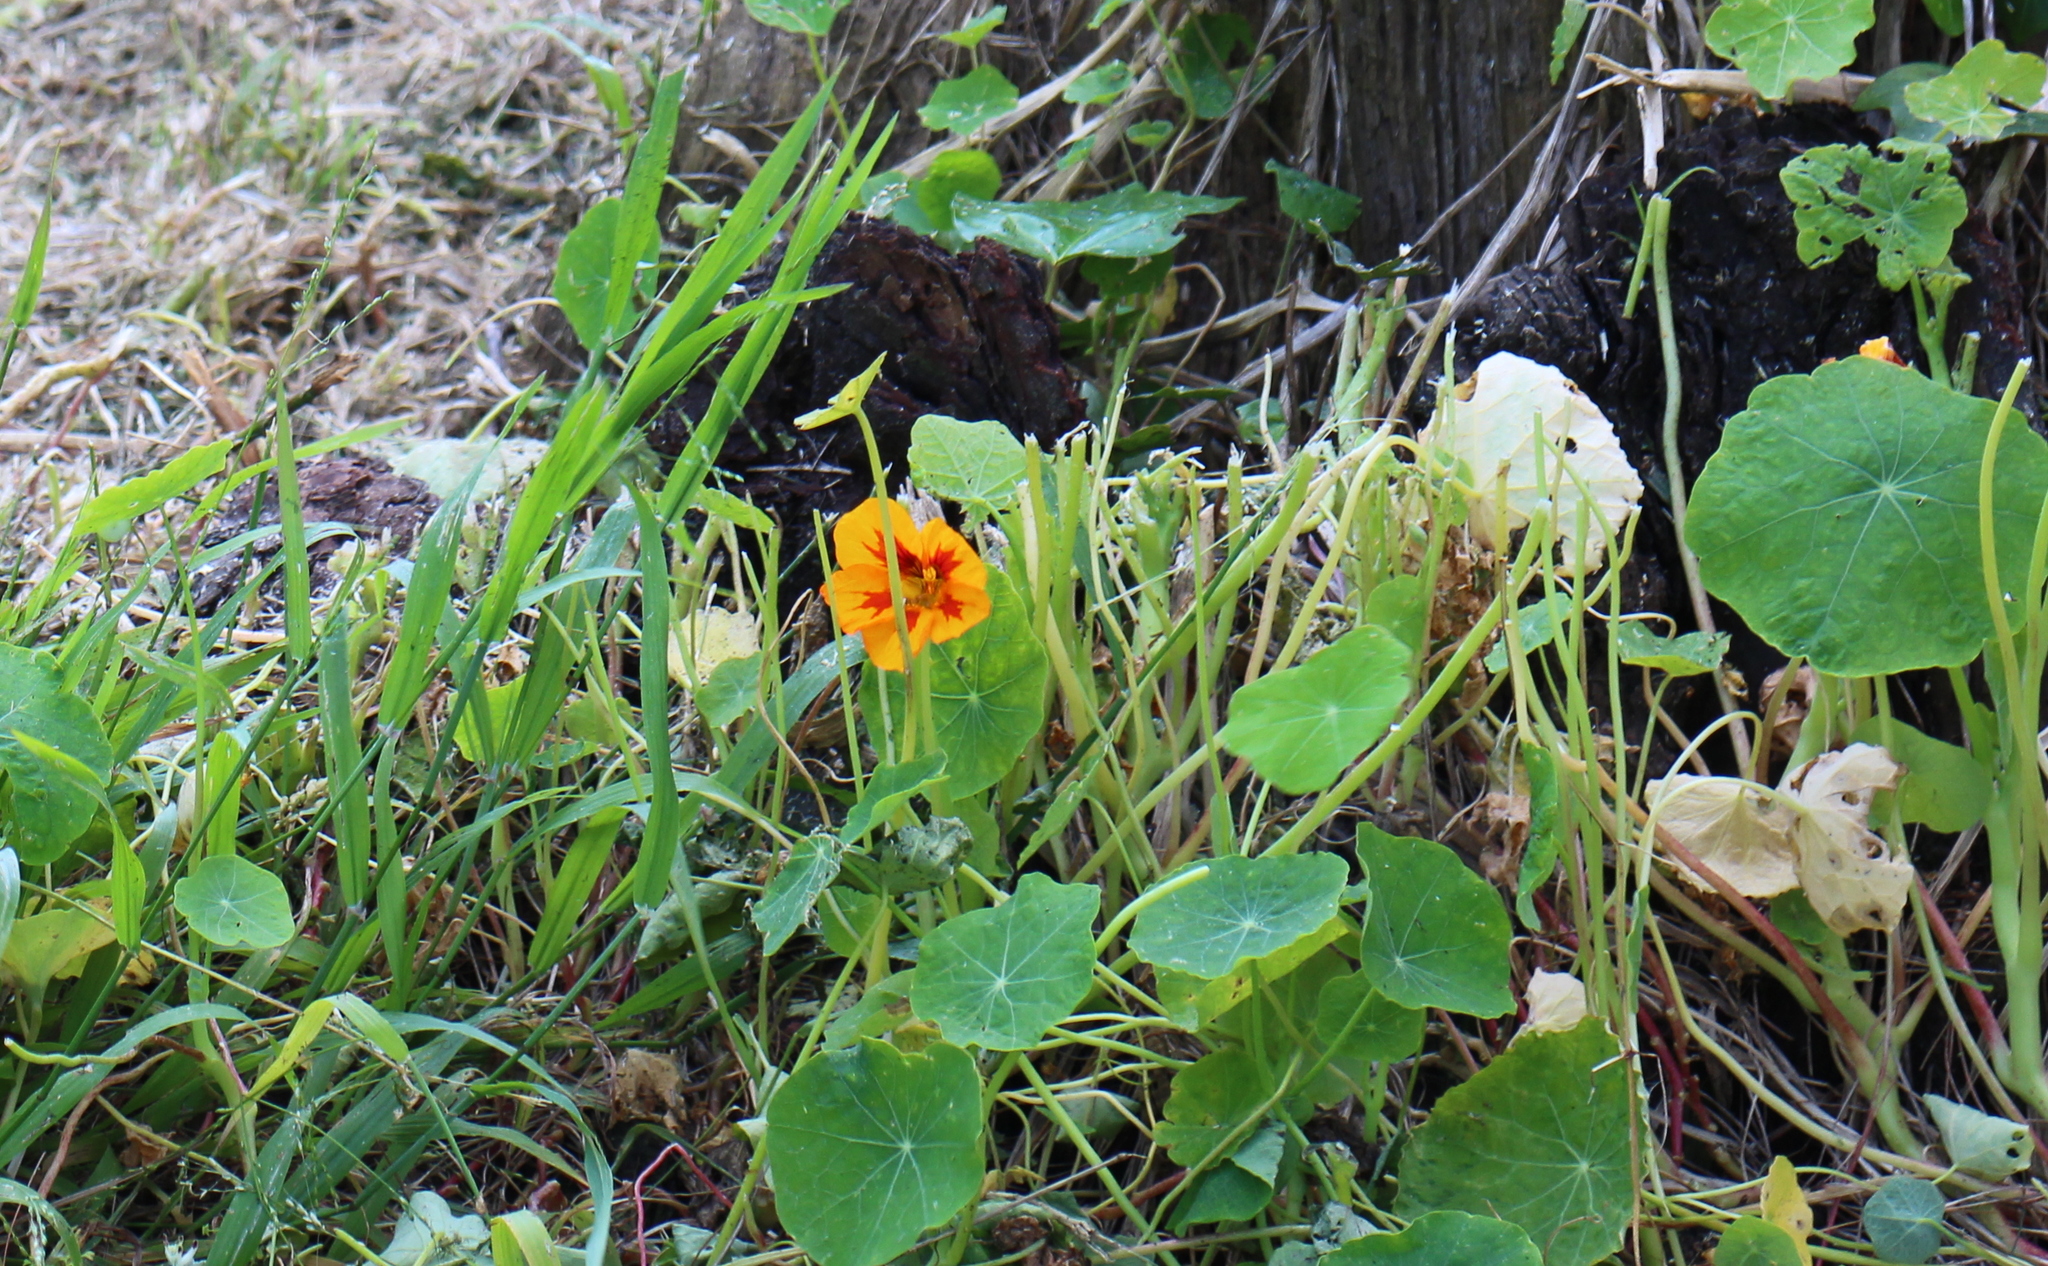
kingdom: Plantae
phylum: Tracheophyta
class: Magnoliopsida
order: Brassicales
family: Tropaeolaceae
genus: Tropaeolum
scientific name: Tropaeolum majus
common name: Nasturtium
